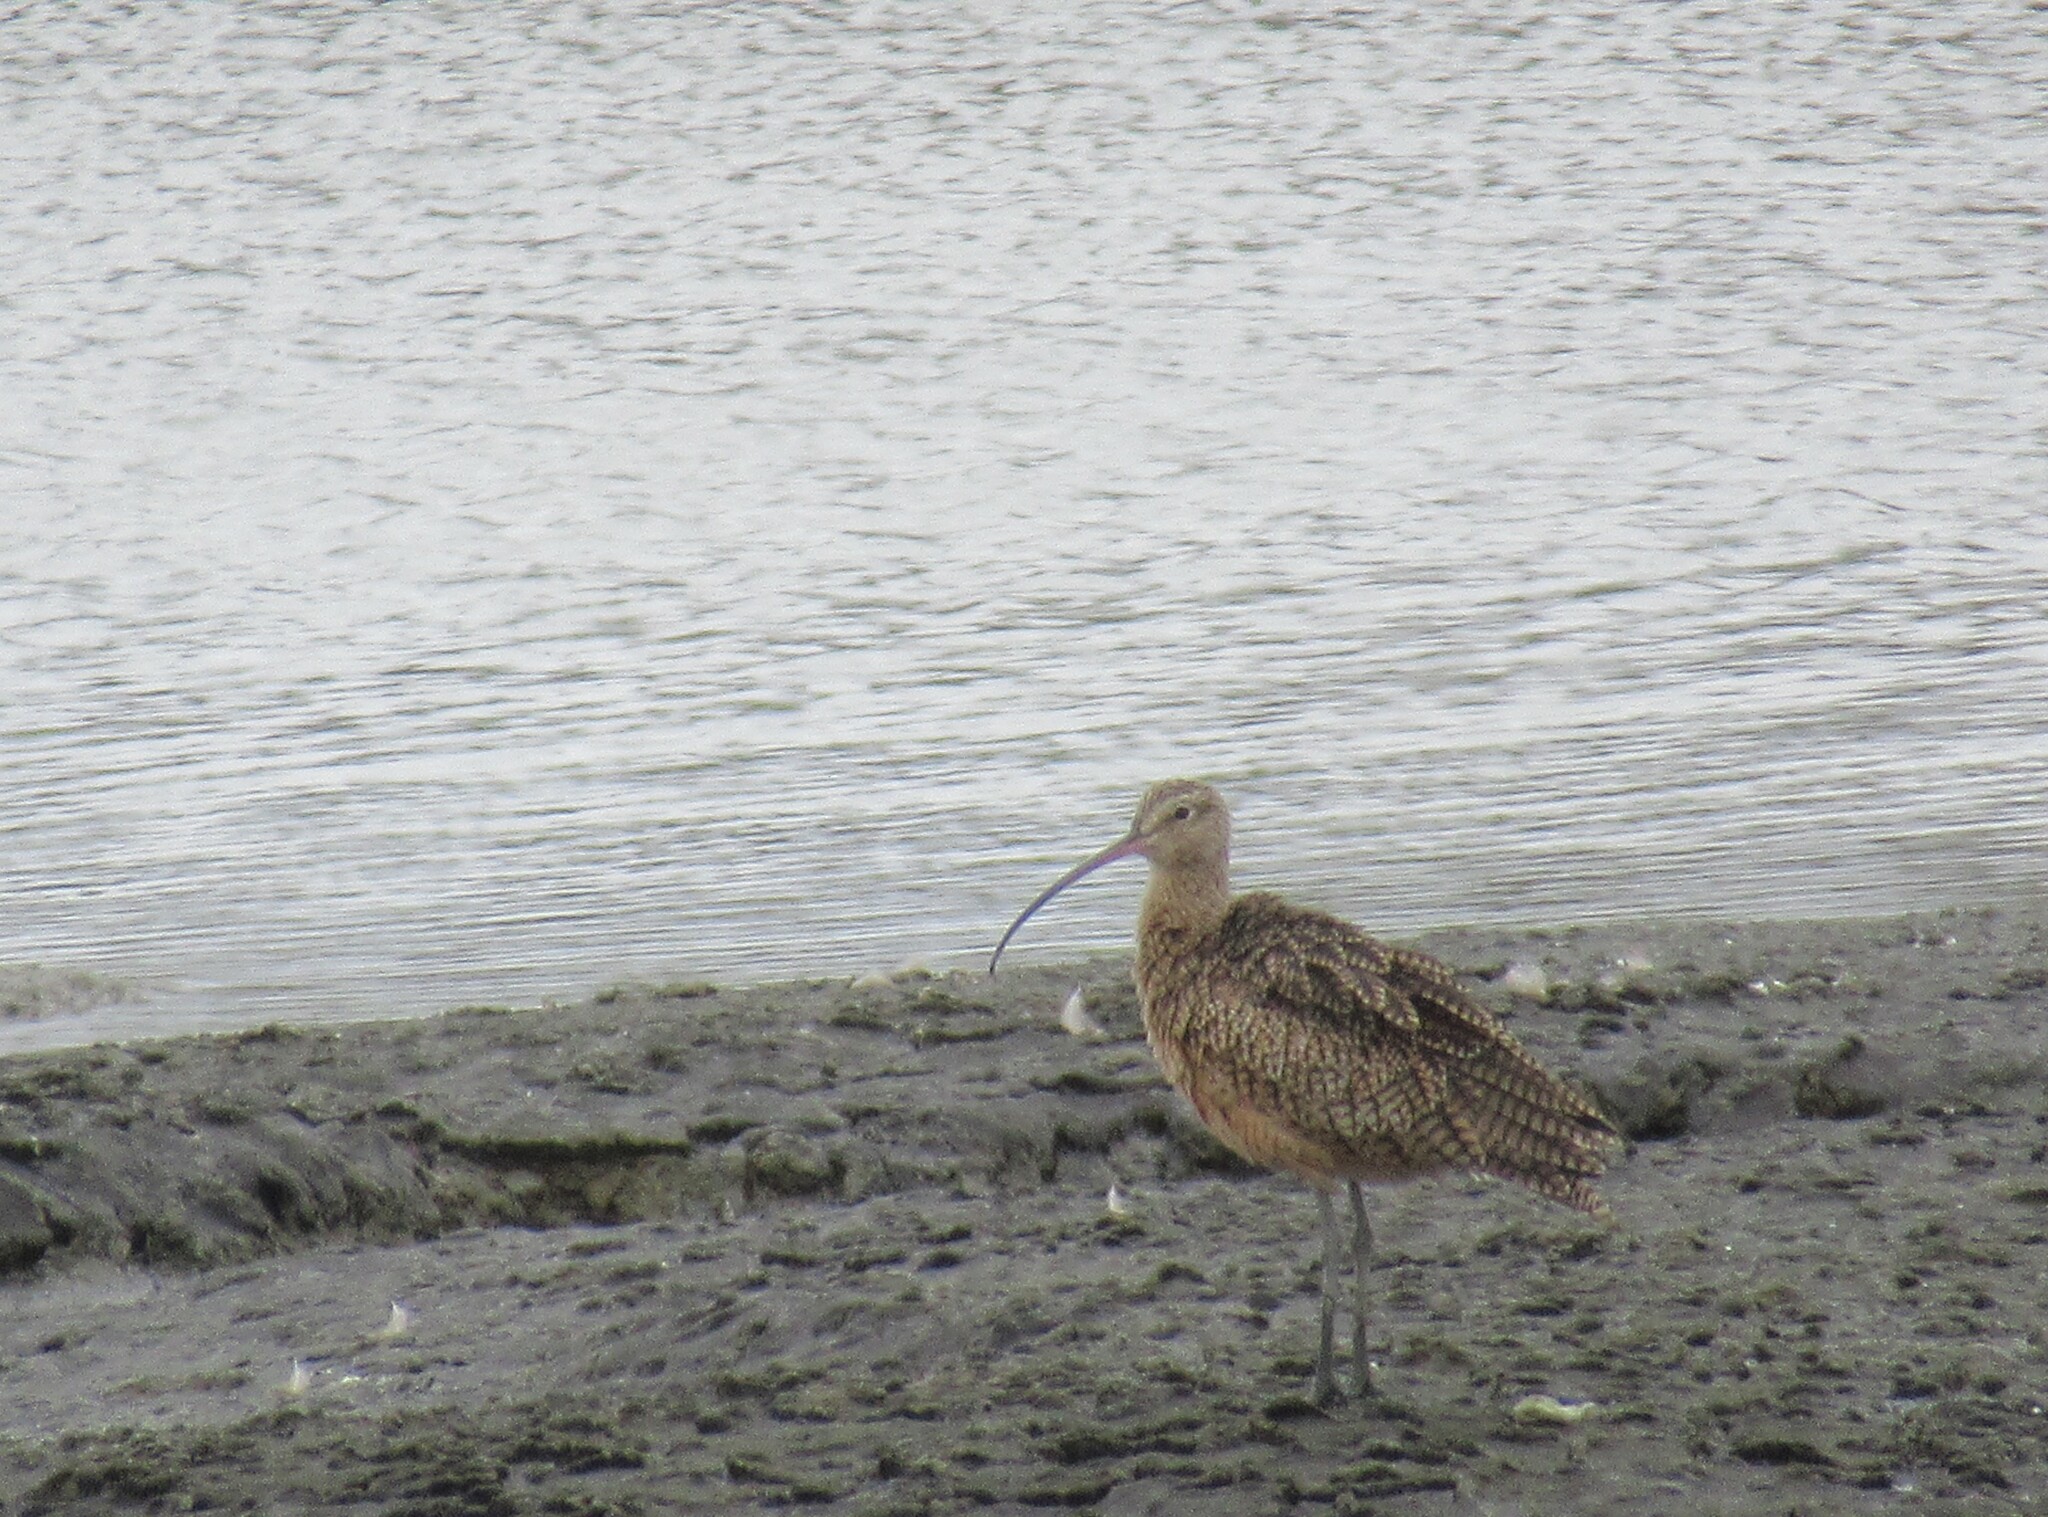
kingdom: Animalia
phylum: Chordata
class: Aves
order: Charadriiformes
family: Scolopacidae
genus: Numenius
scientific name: Numenius americanus
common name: Long-billed curlew
